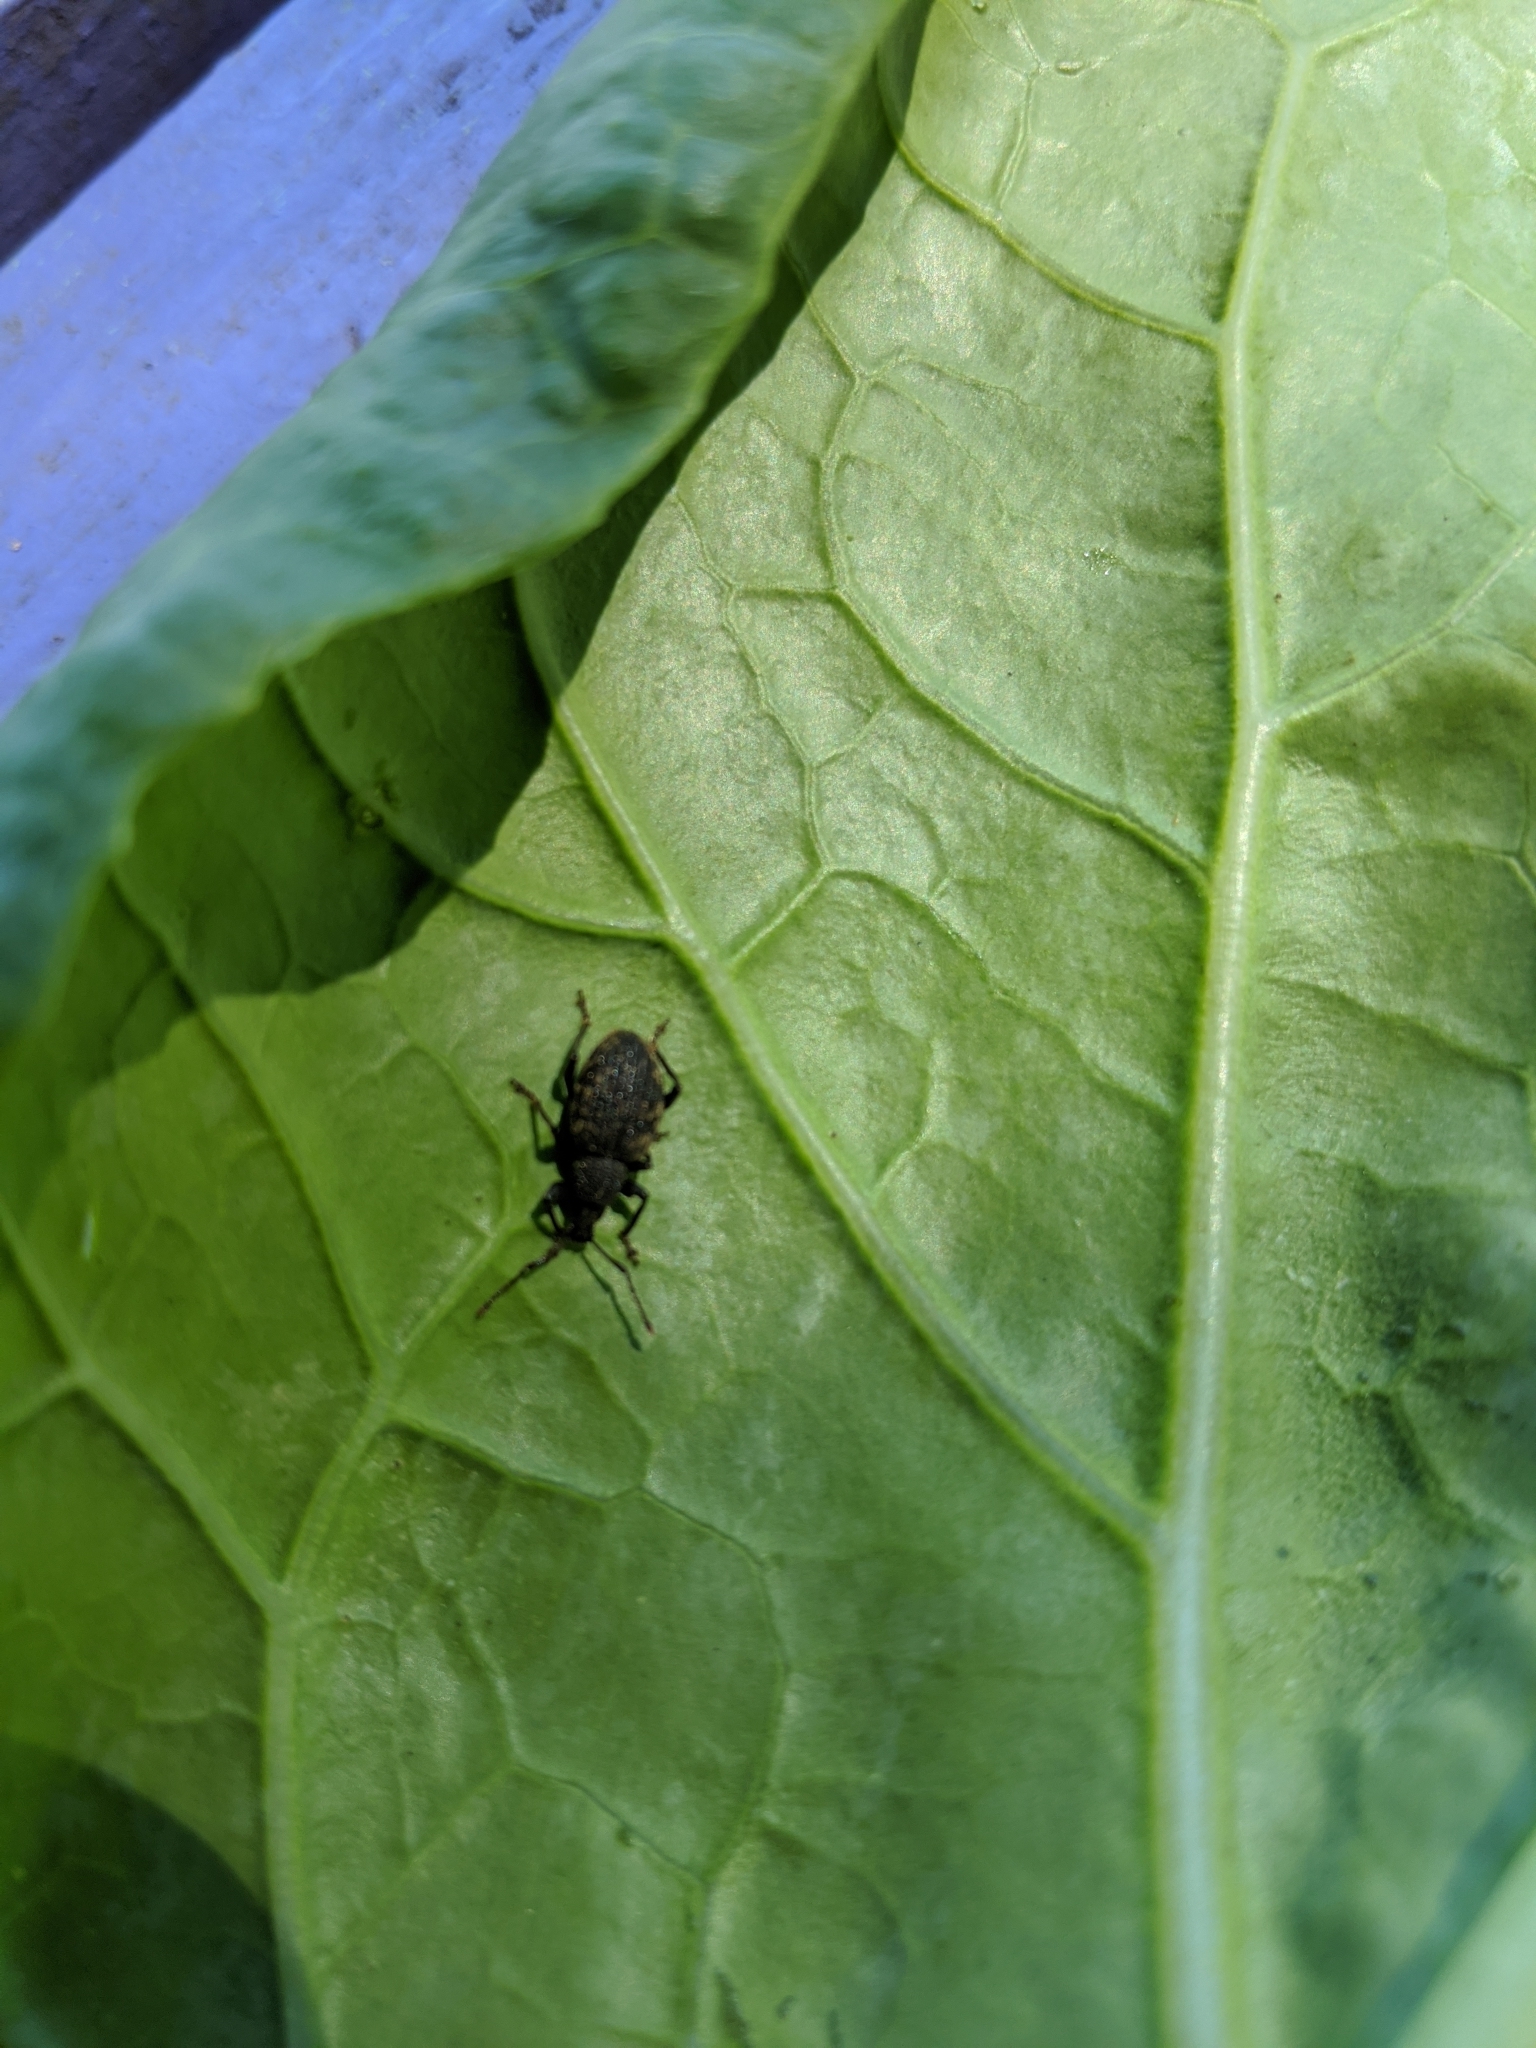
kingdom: Animalia
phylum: Arthropoda
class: Insecta
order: Coleoptera
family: Curculionidae
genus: Otiorhynchus
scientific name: Otiorhynchus sulcatus
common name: Black vine weevil
